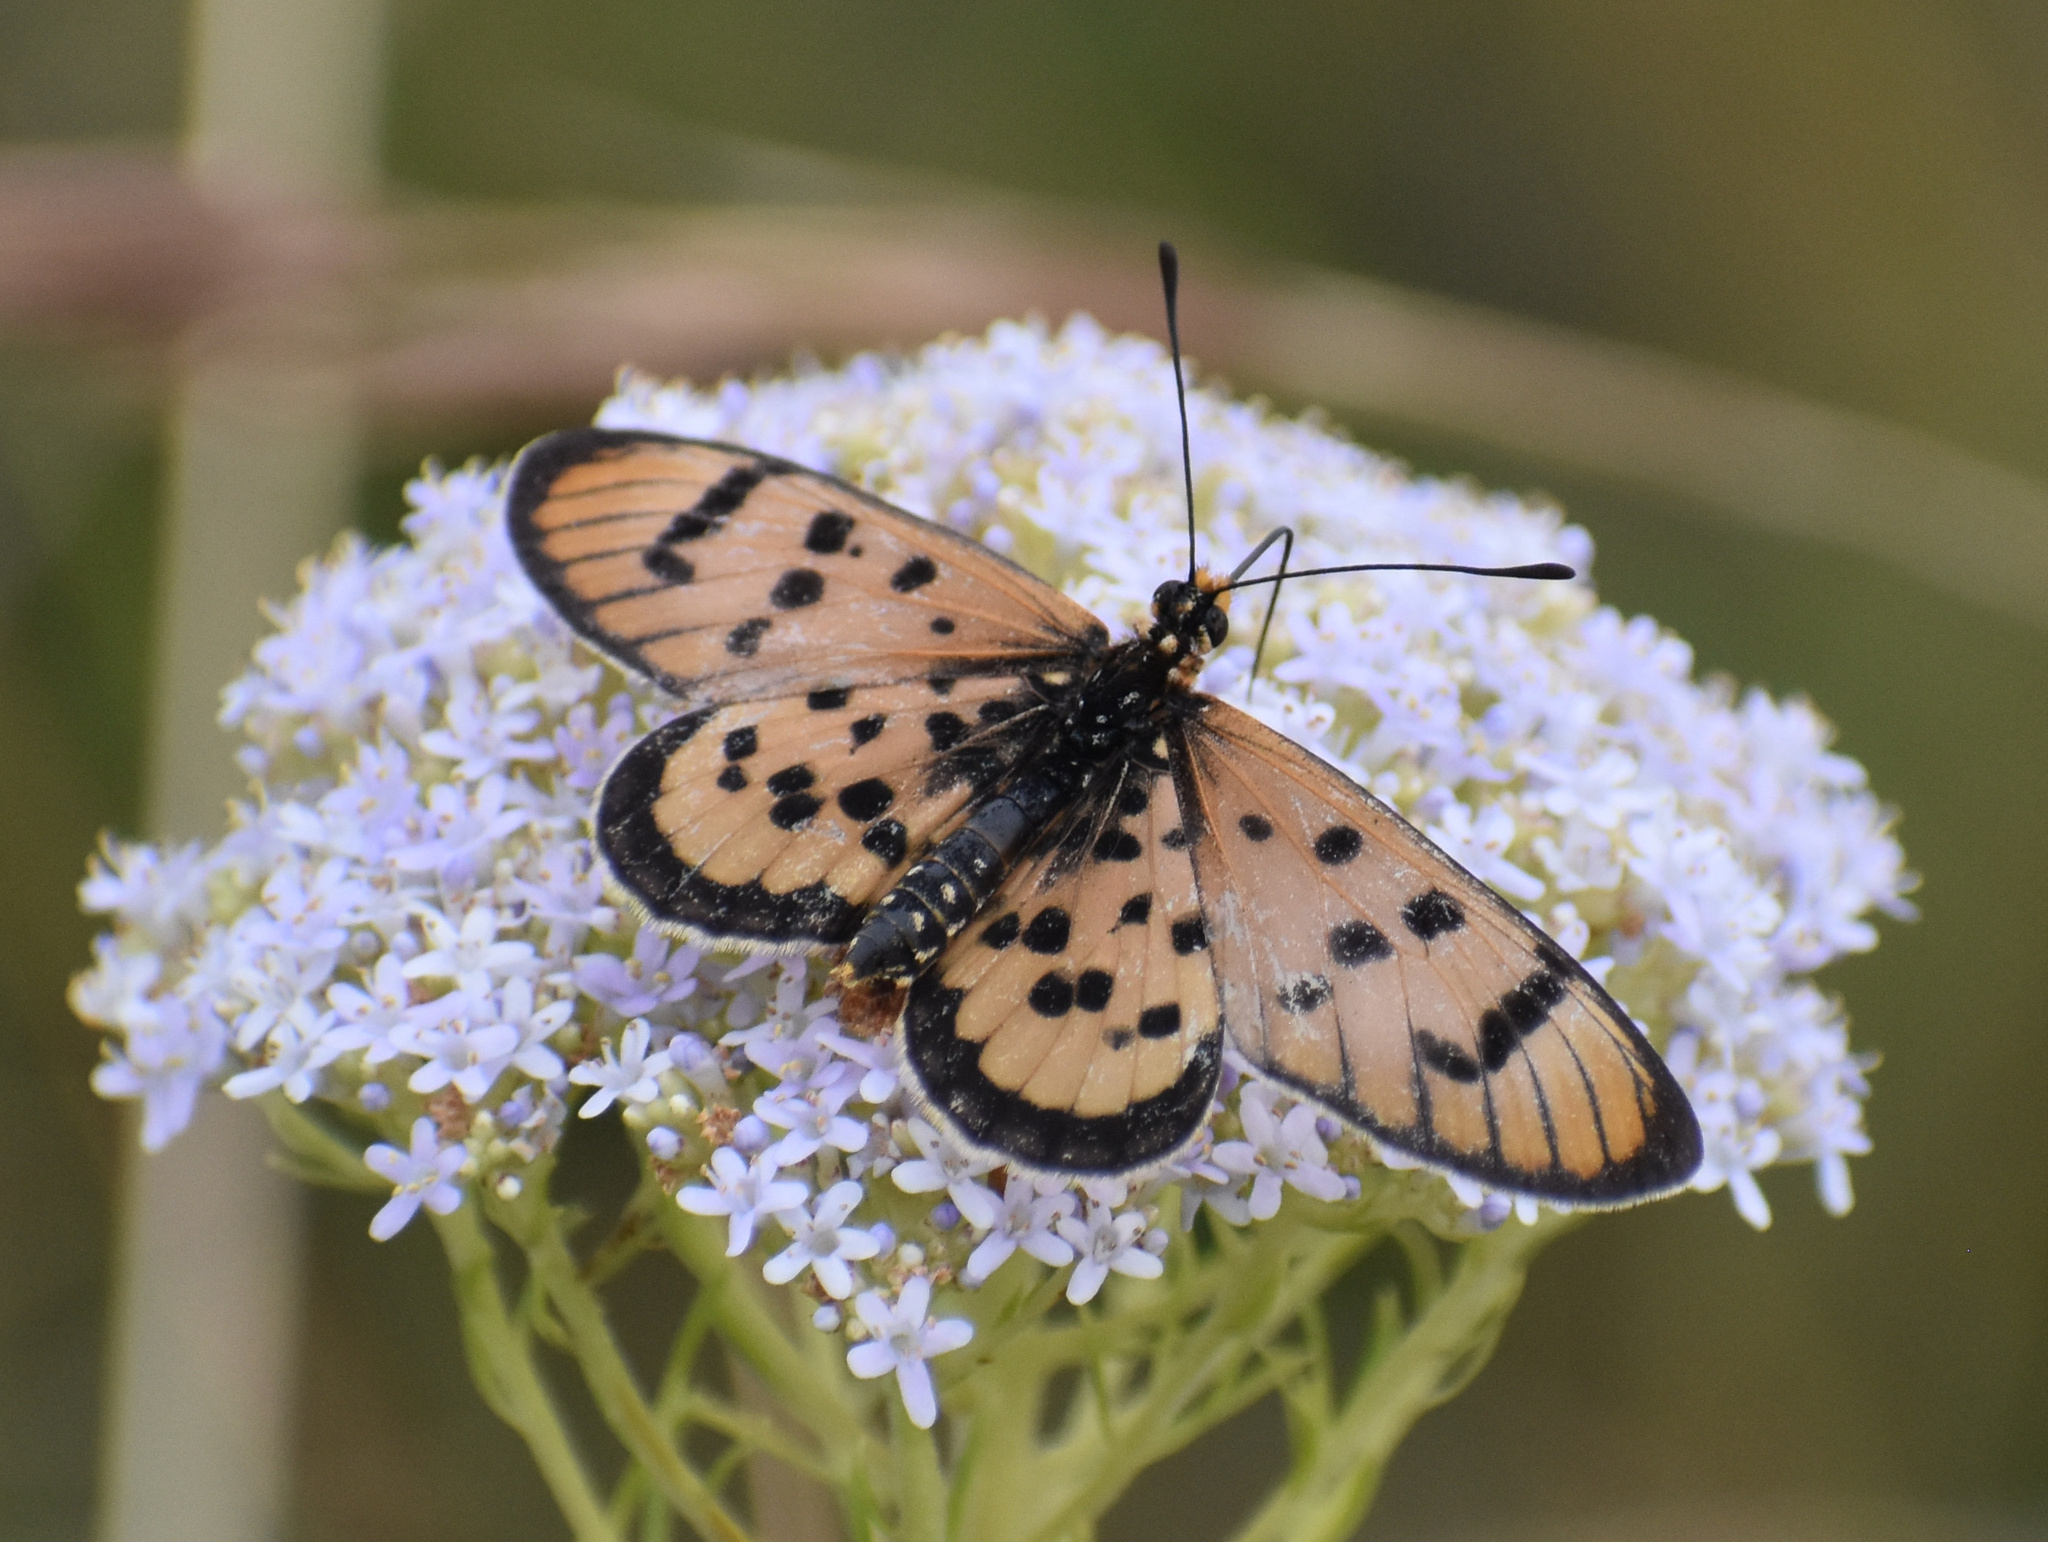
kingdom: Animalia
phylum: Arthropoda
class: Insecta
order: Lepidoptera
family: Nymphalidae
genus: Rubraea
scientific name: Rubraea
